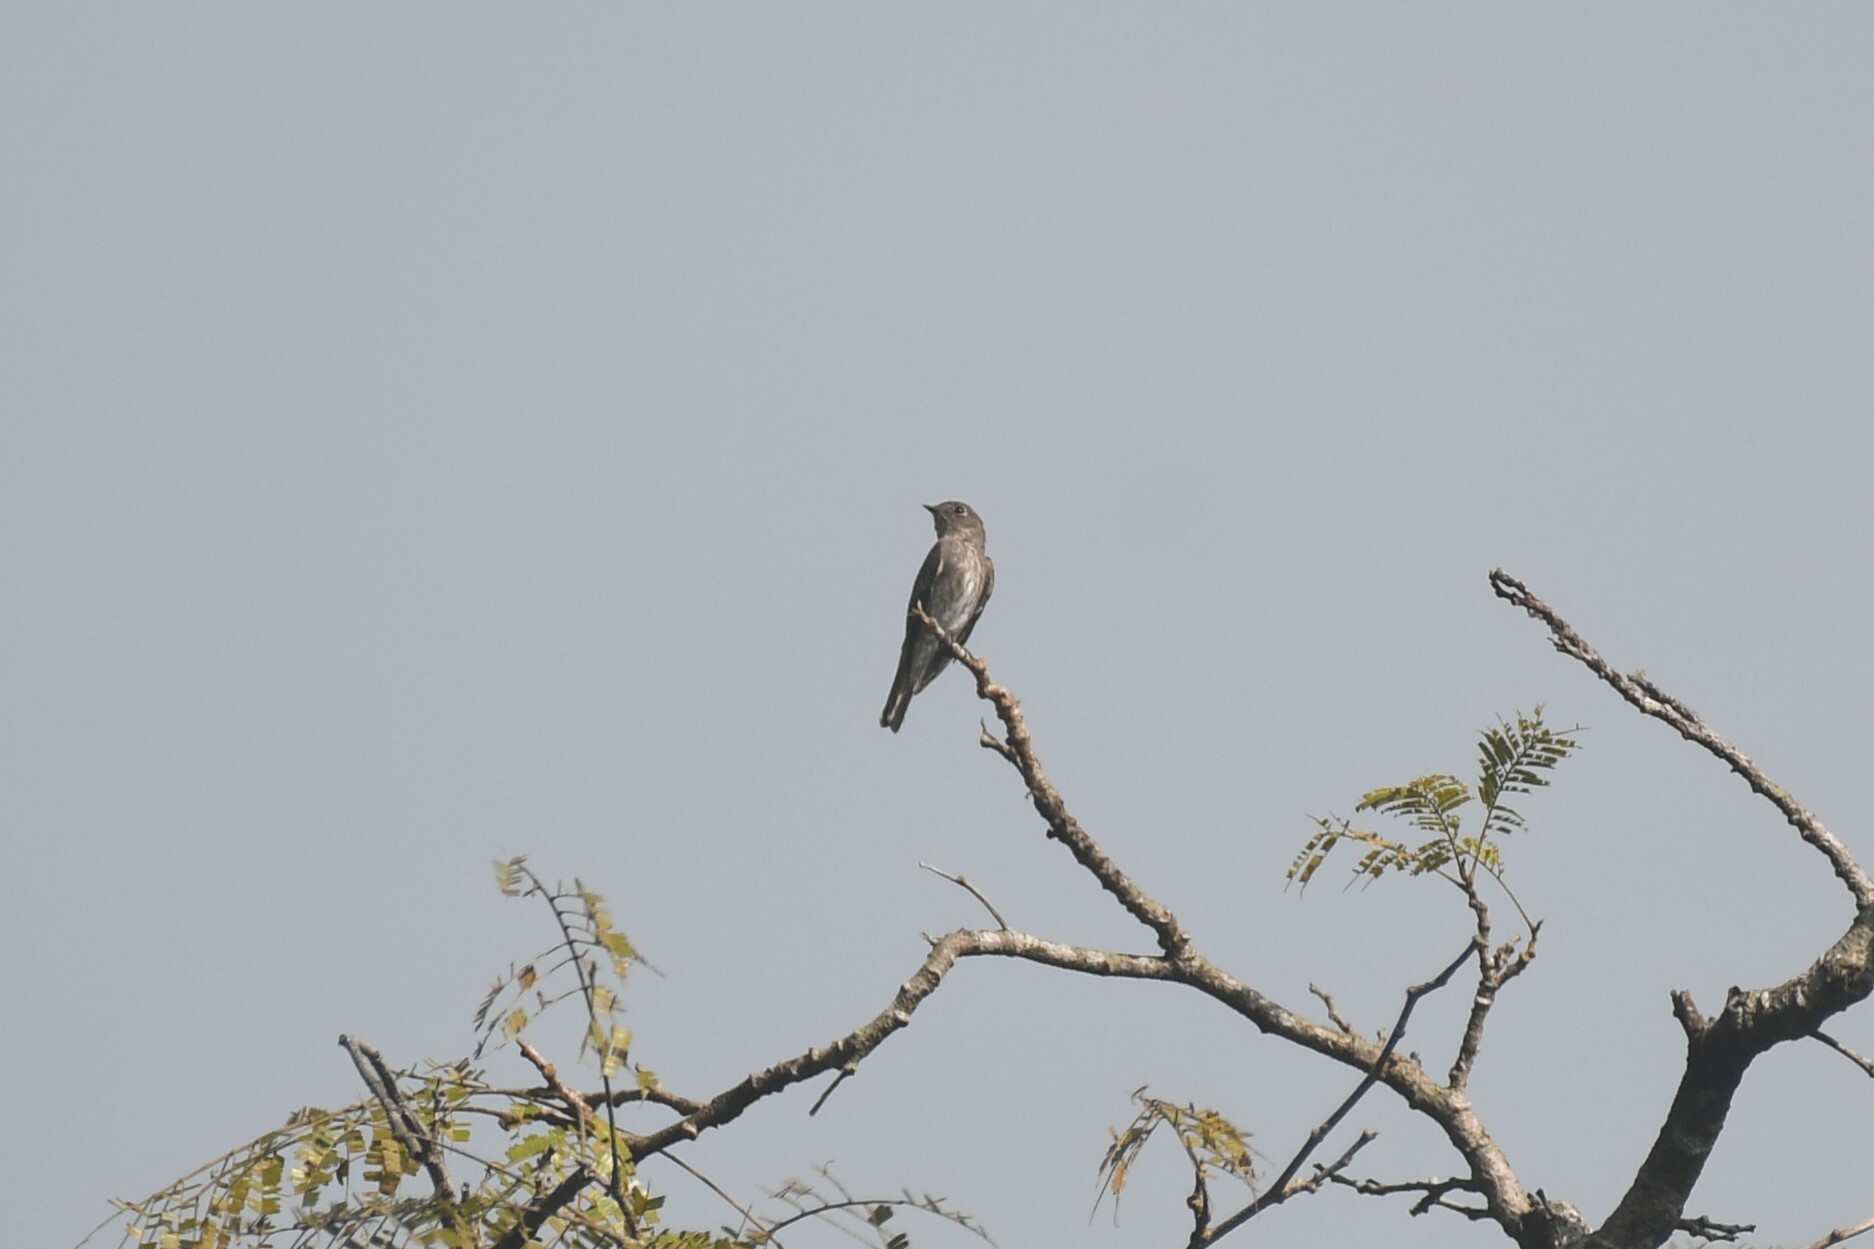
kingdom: Animalia
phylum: Chordata
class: Aves
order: Passeriformes
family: Muscicapidae
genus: Muscicapa
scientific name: Muscicapa sibirica
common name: Dark-sided flycatcher
